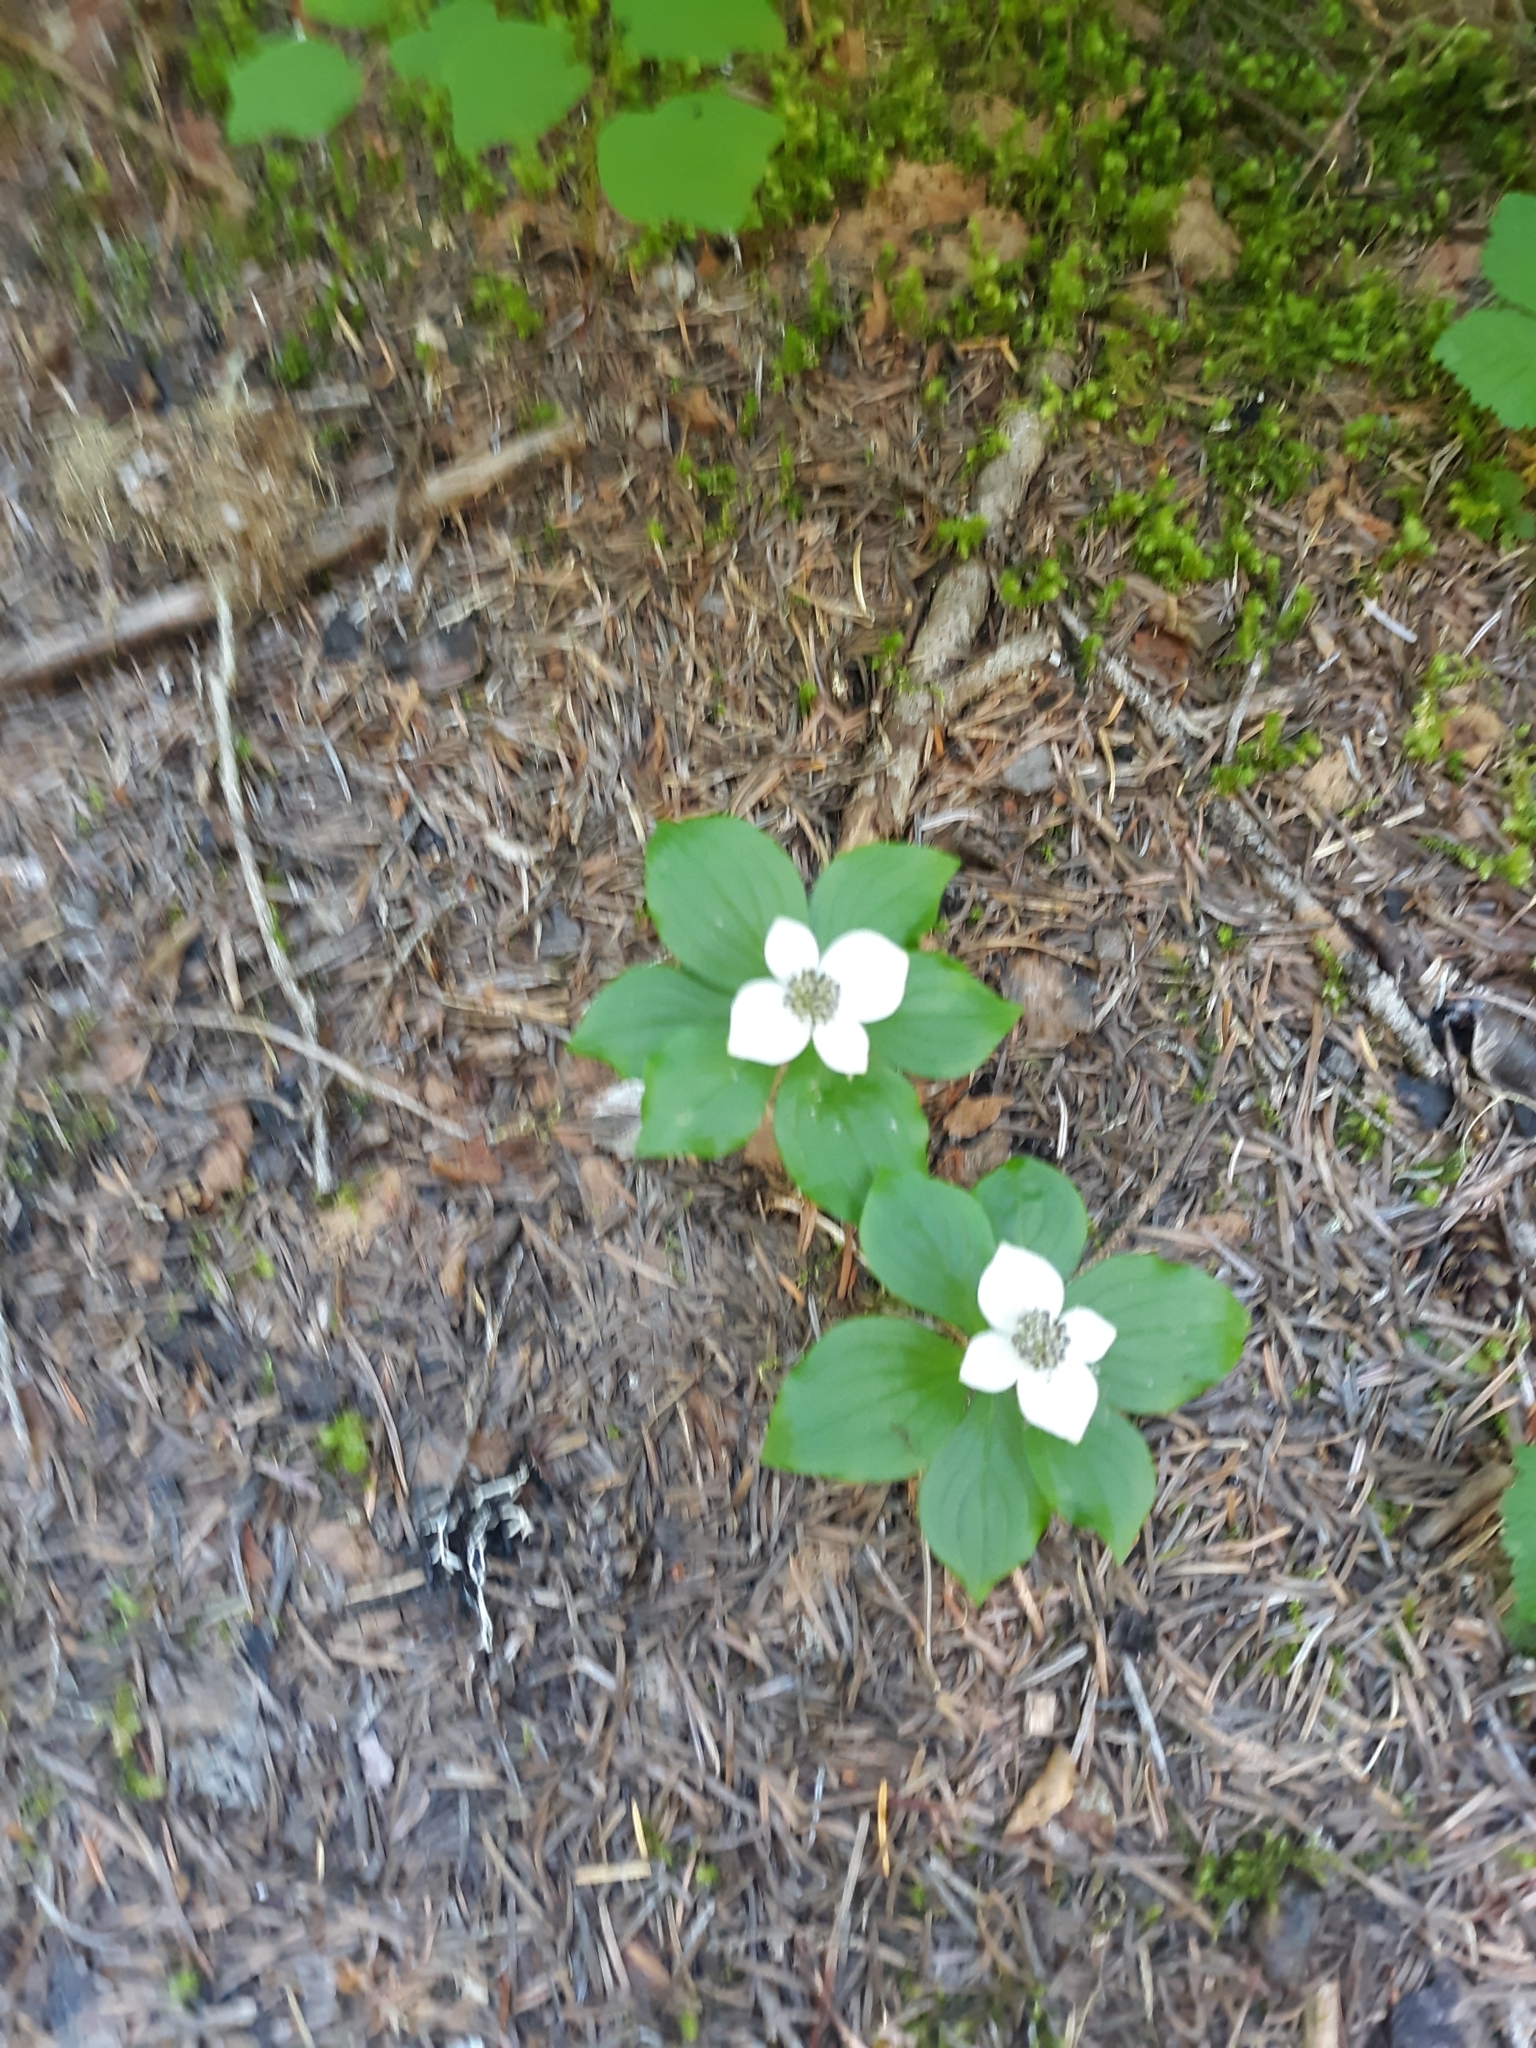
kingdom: Plantae
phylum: Tracheophyta
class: Magnoliopsida
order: Cornales
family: Cornaceae
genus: Cornus
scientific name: Cornus unalaschkensis
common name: Alaska bunchberry
